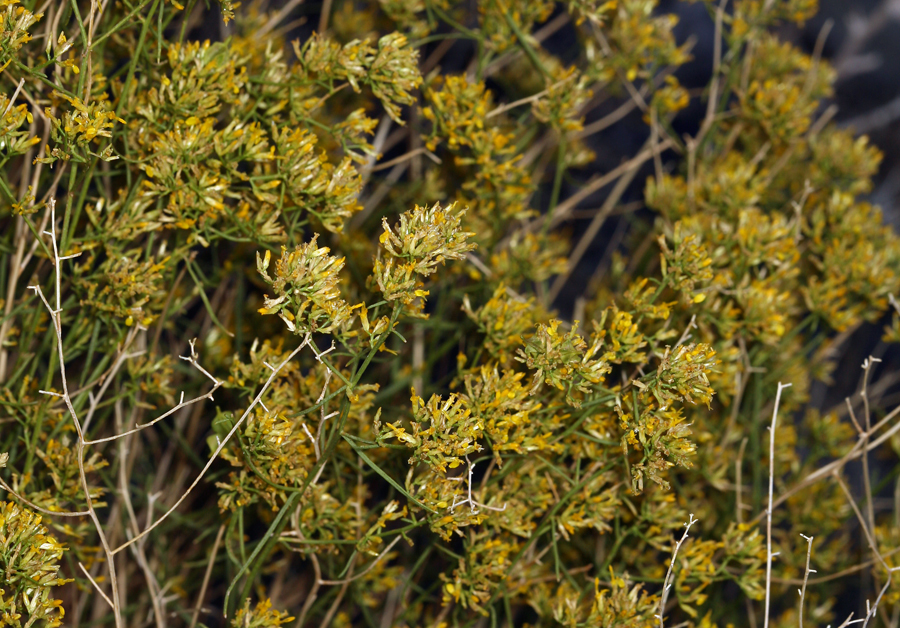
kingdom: Plantae
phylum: Tracheophyta
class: Magnoliopsida
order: Asterales
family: Asteraceae
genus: Gutierrezia
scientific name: Gutierrezia microcephala
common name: Thread snakeweed
